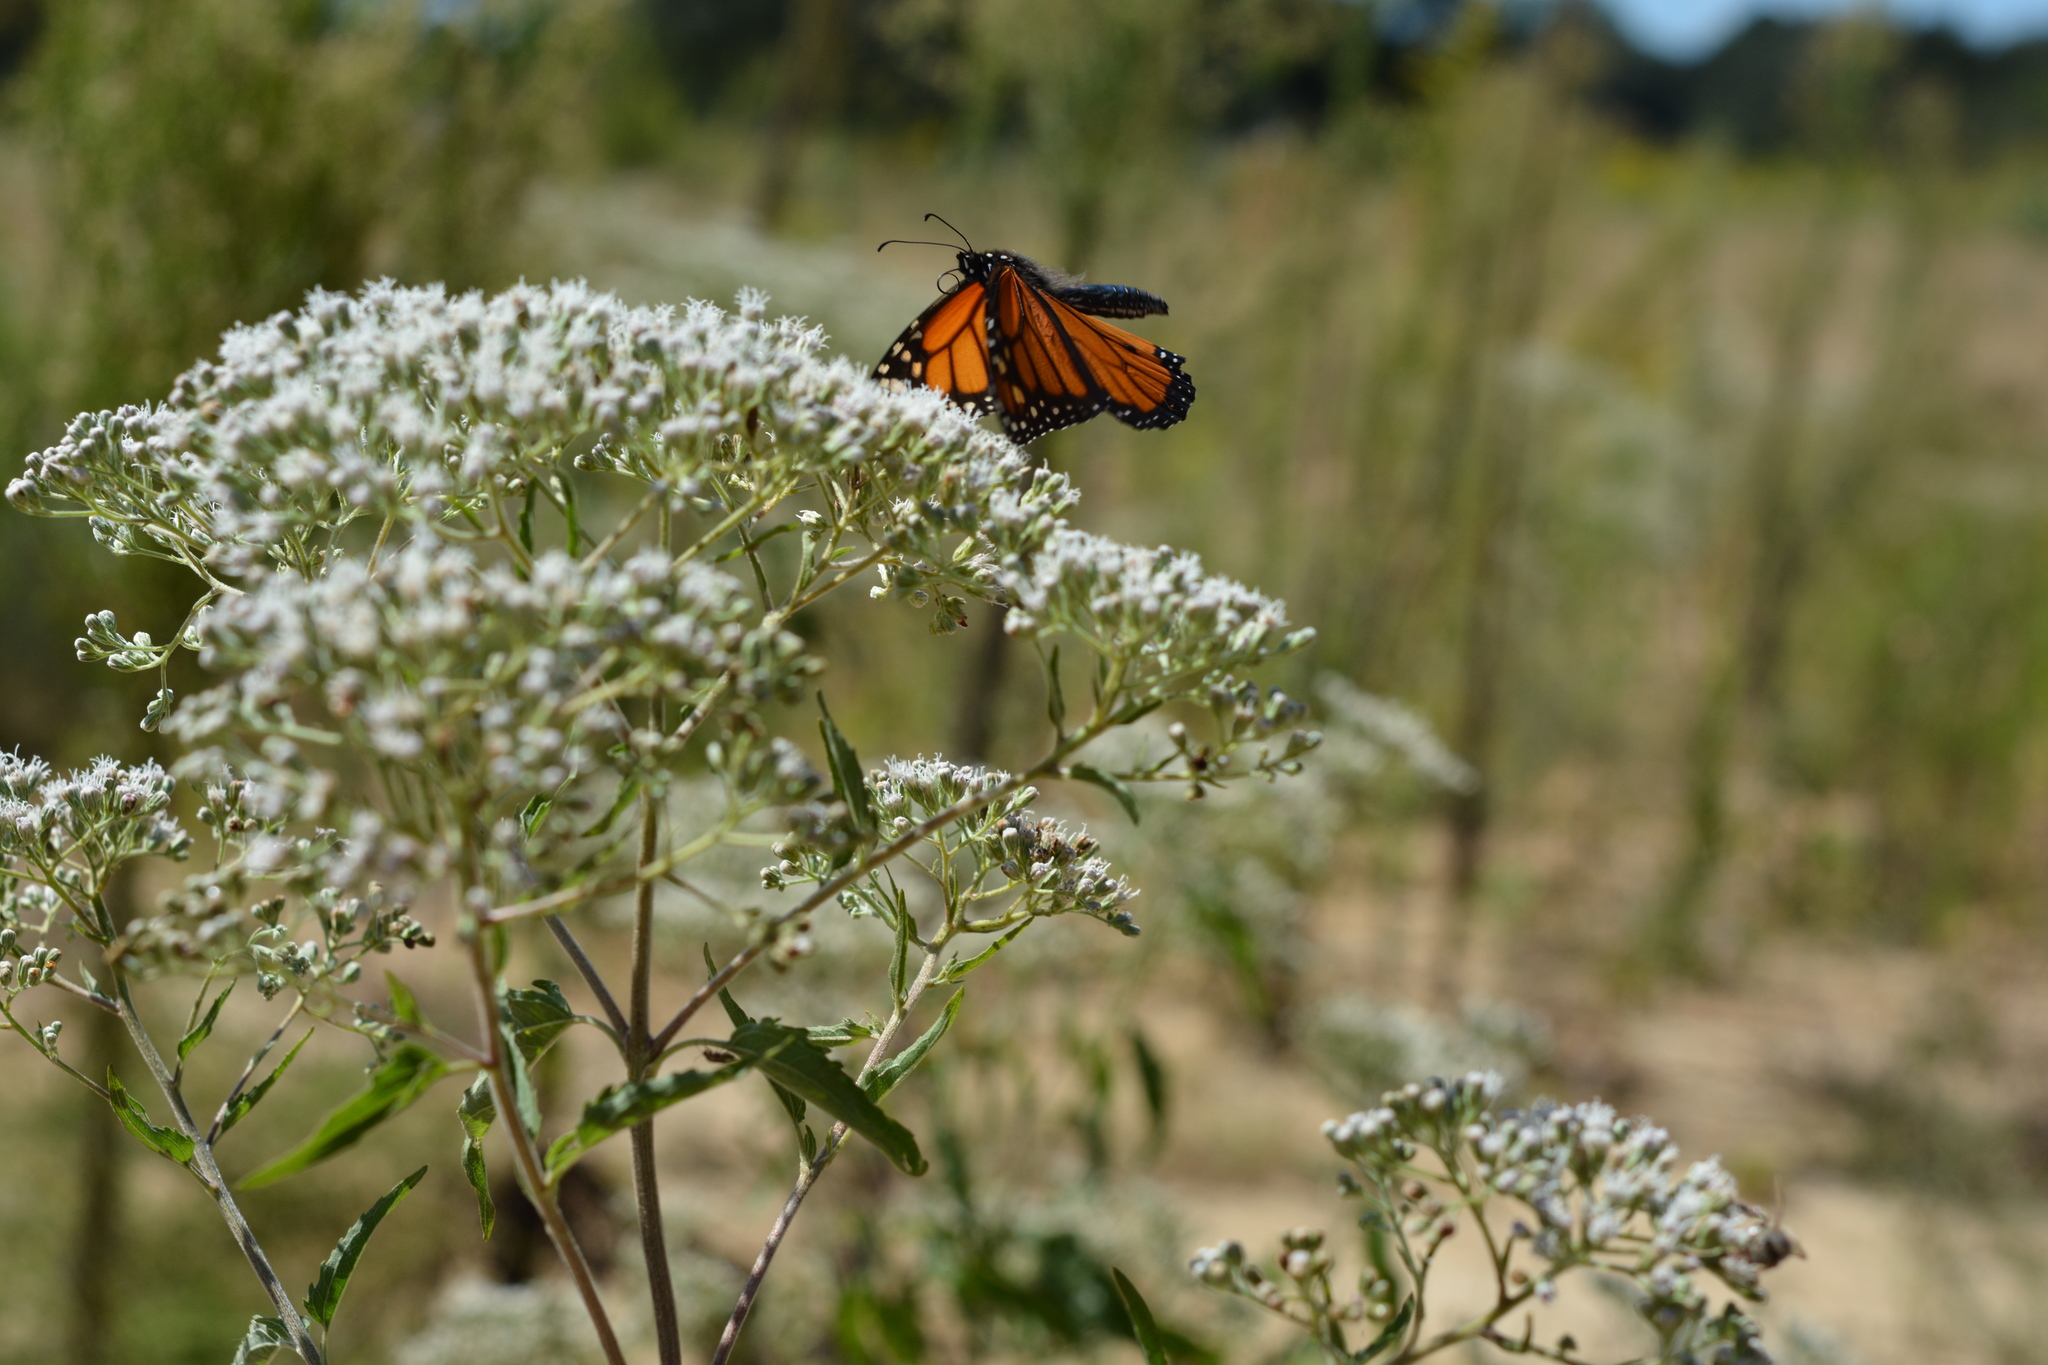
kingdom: Animalia
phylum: Arthropoda
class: Insecta
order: Lepidoptera
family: Nymphalidae
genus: Danaus
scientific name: Danaus plexippus
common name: Monarch
